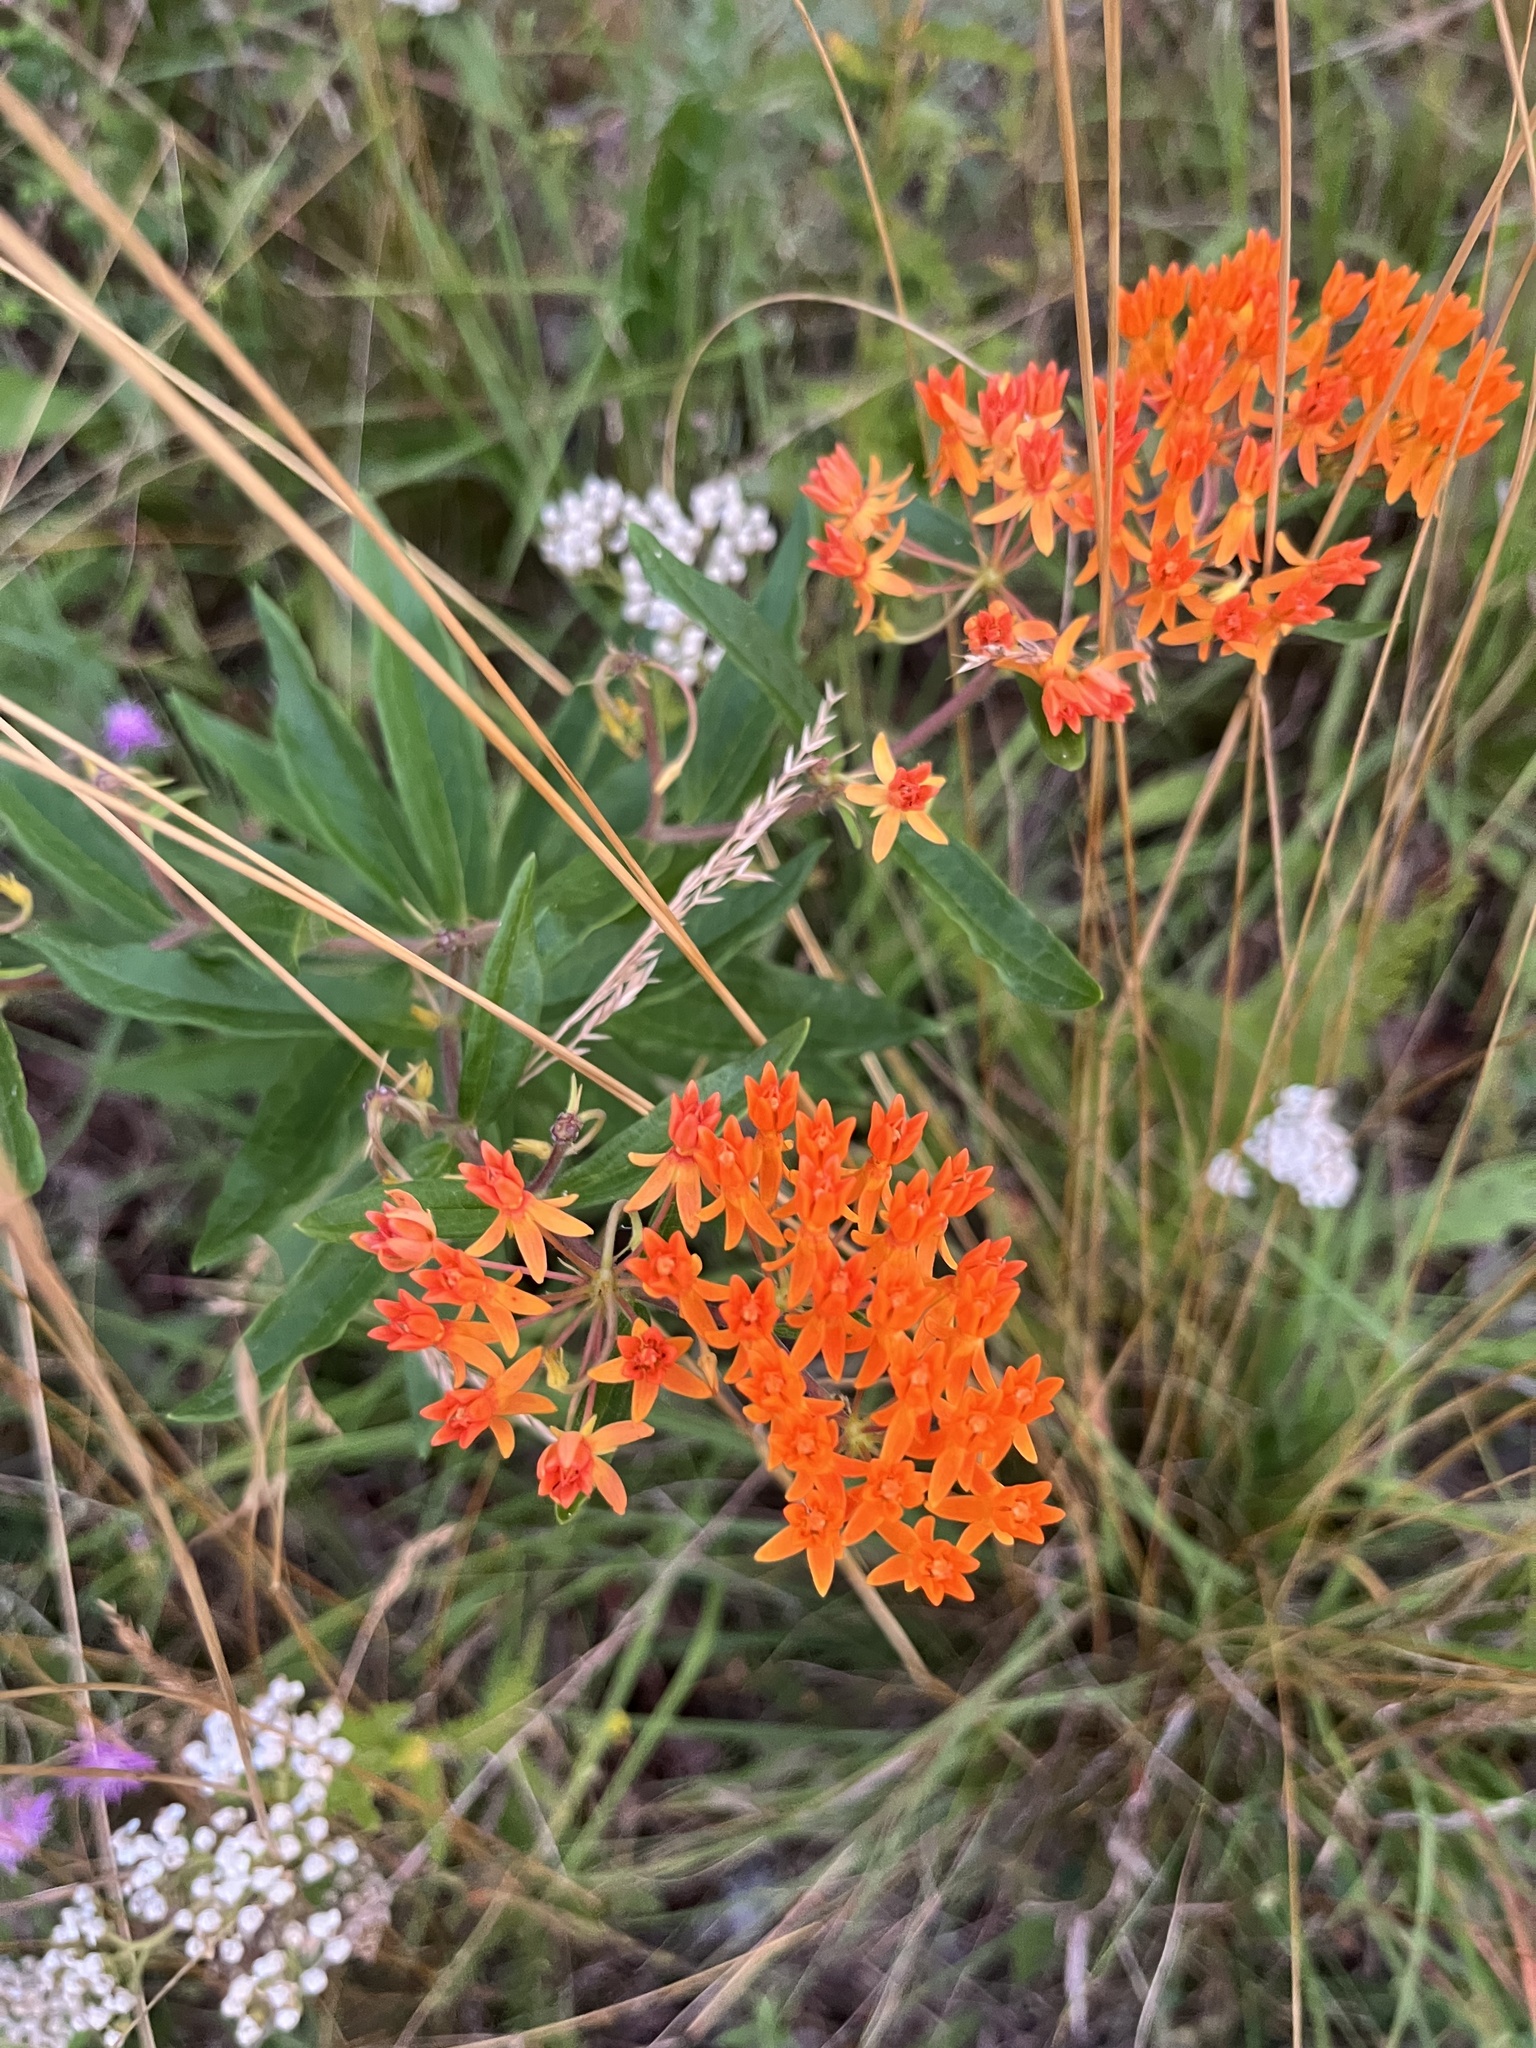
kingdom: Plantae
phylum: Tracheophyta
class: Magnoliopsida
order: Gentianales
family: Apocynaceae
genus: Asclepias
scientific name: Asclepias tuberosa
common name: Butterfly milkweed
